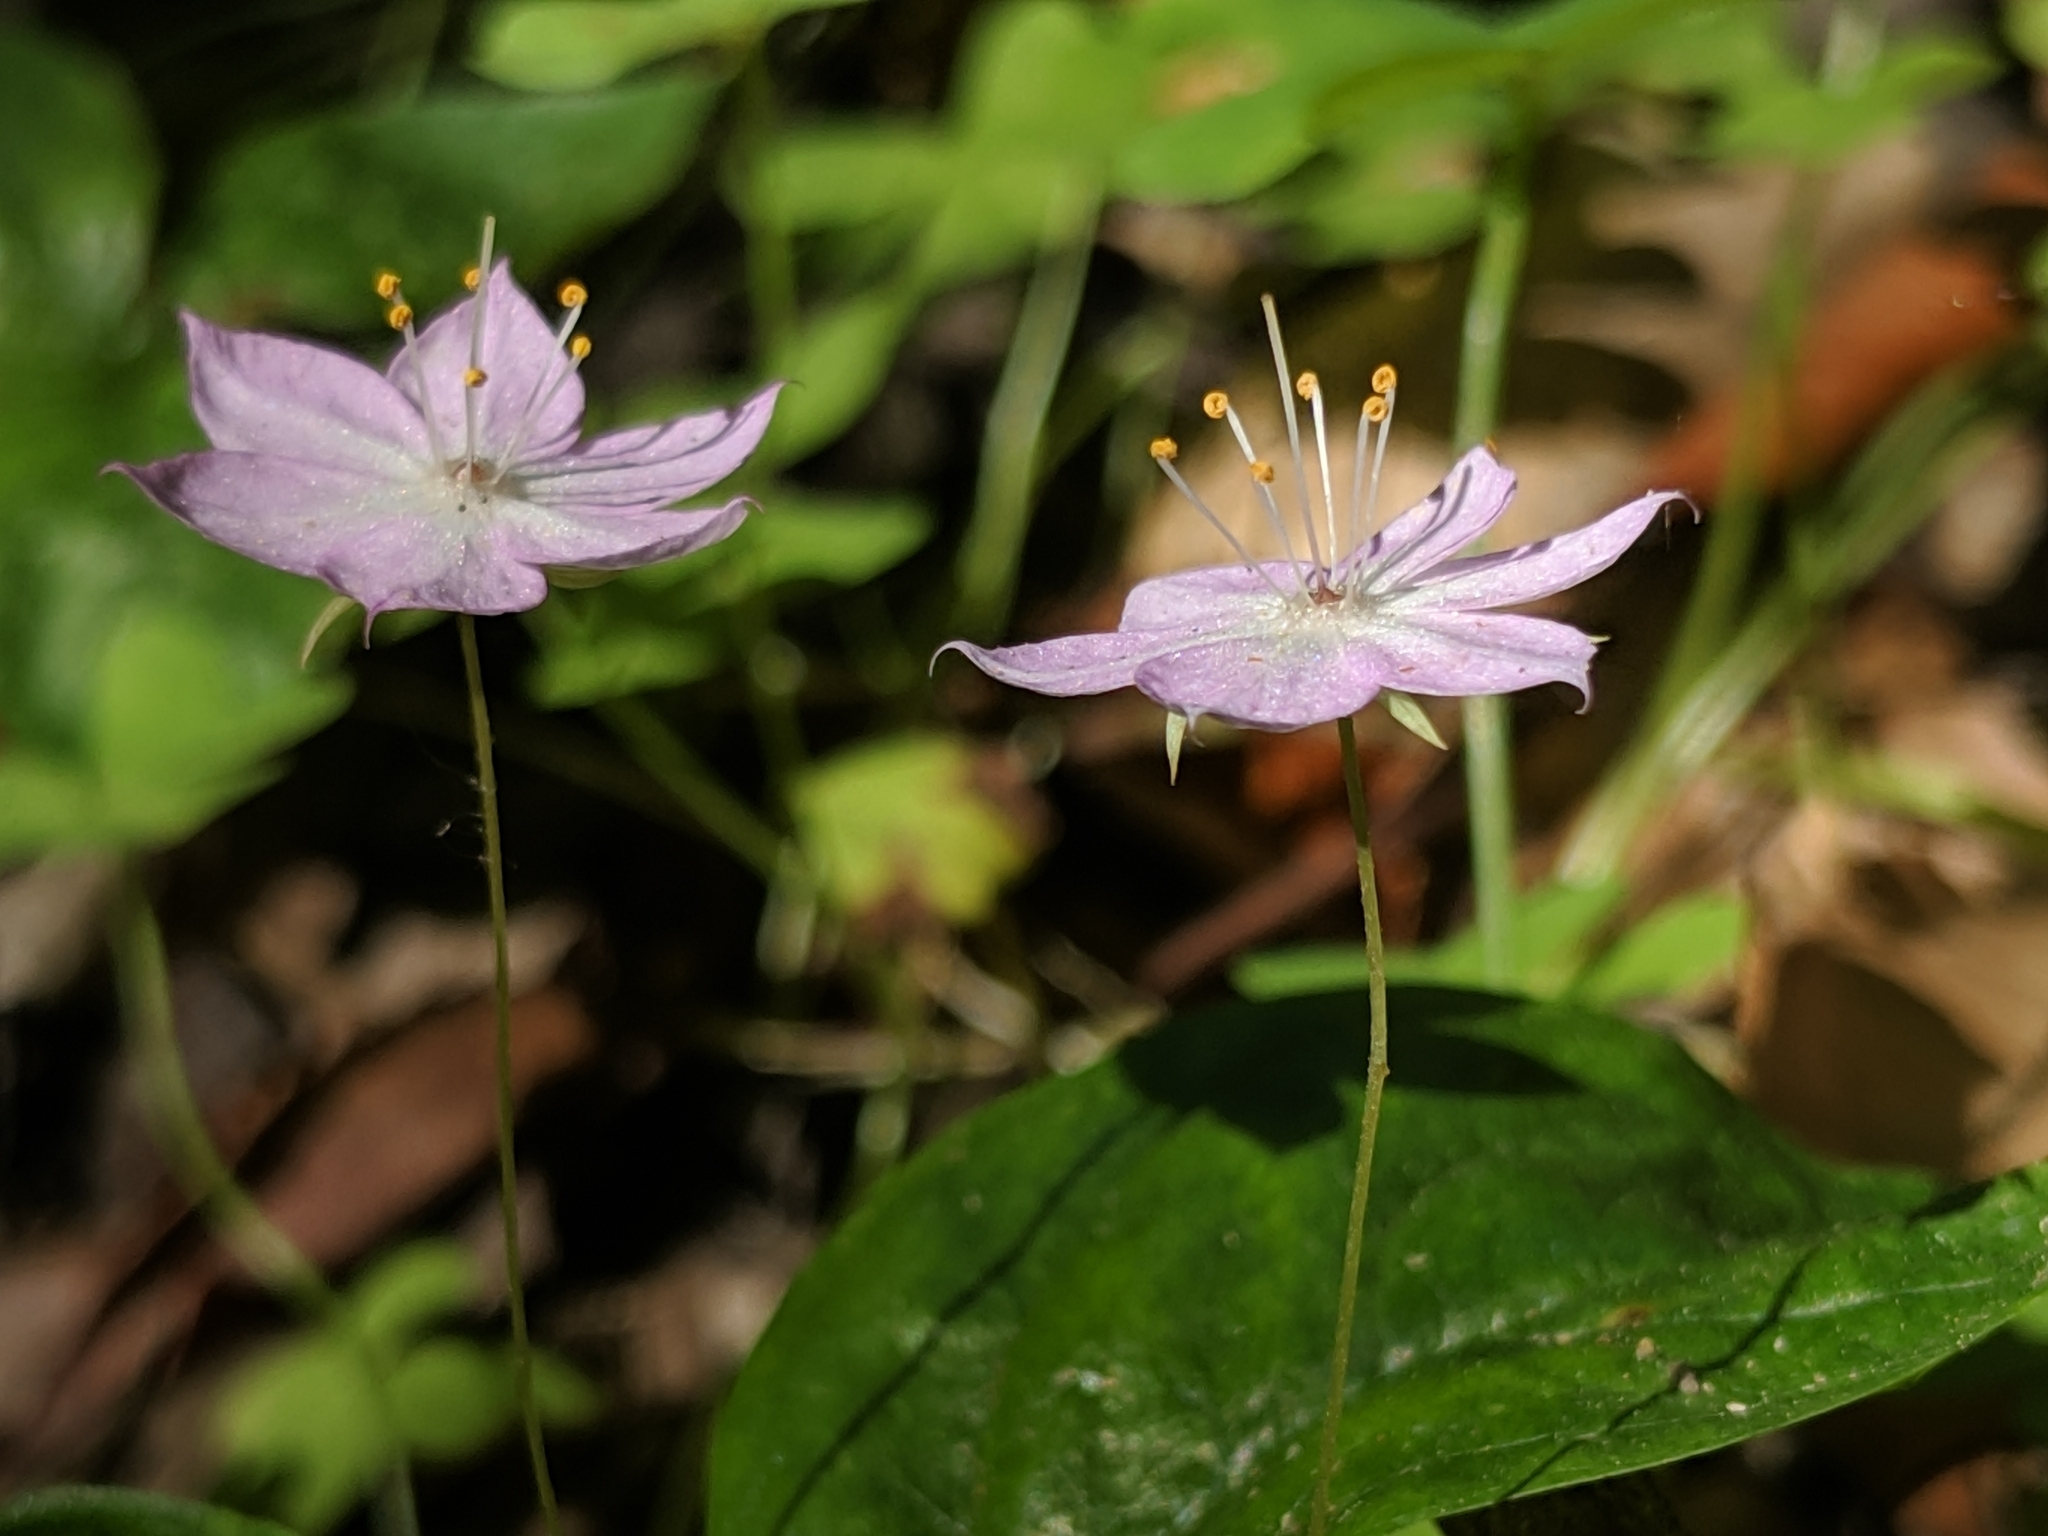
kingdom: Plantae
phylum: Tracheophyta
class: Magnoliopsida
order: Ericales
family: Primulaceae
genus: Lysimachia
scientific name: Lysimachia latifolia
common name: Pacific starflower
